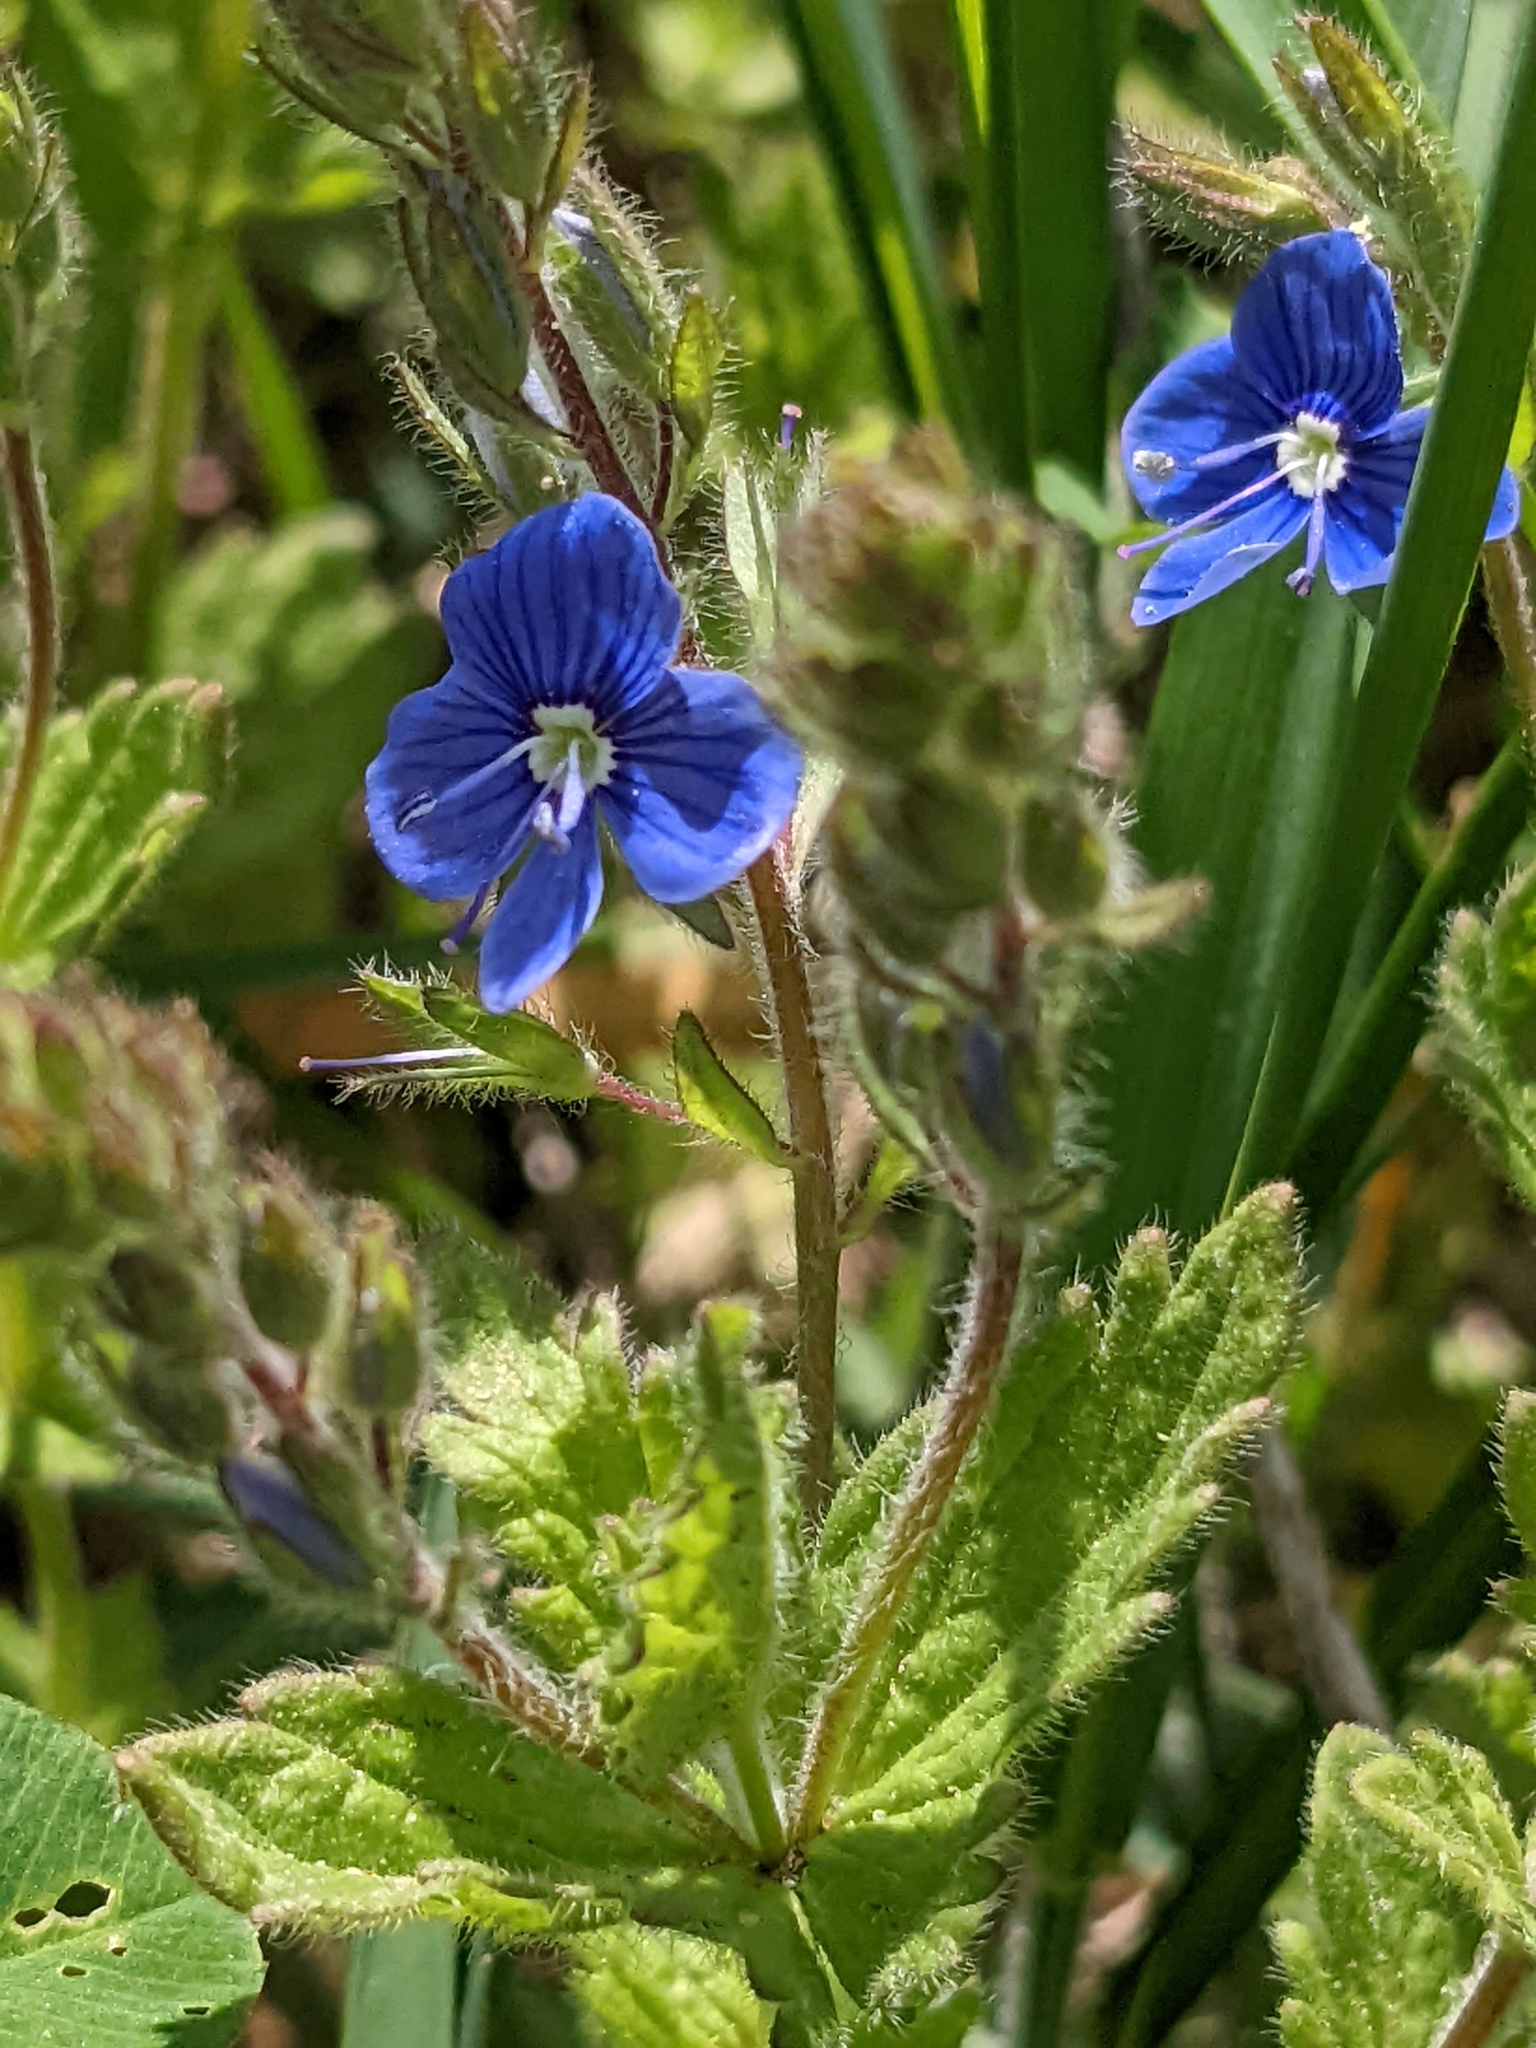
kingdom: Plantae
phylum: Tracheophyta
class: Magnoliopsida
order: Lamiales
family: Plantaginaceae
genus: Veronica
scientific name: Veronica chamaedrys
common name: Germander speedwell
